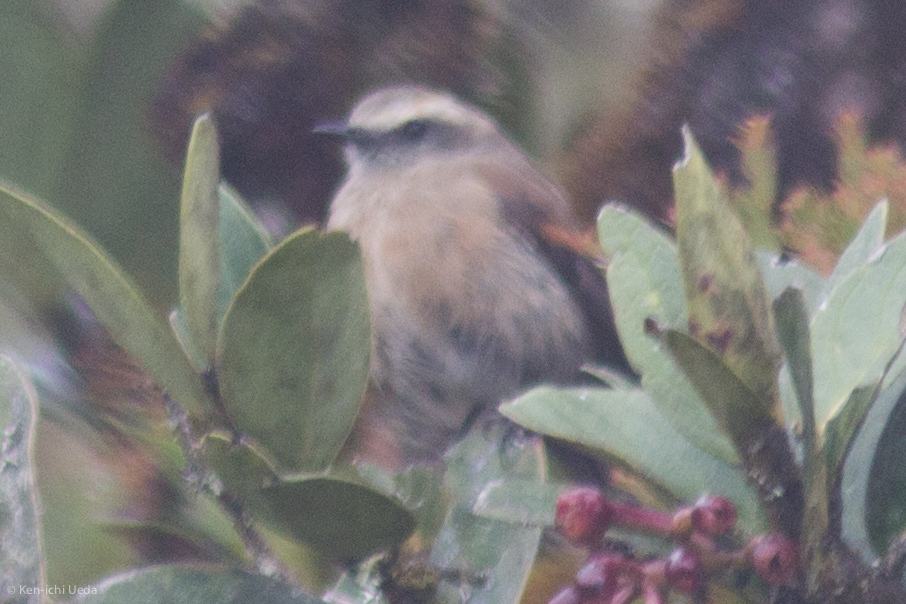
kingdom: Animalia
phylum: Chordata
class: Aves
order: Passeriformes
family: Tyrannidae
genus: Ochthoeca
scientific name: Ochthoeca fumicolor
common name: Brown-backed chat-tyrant
